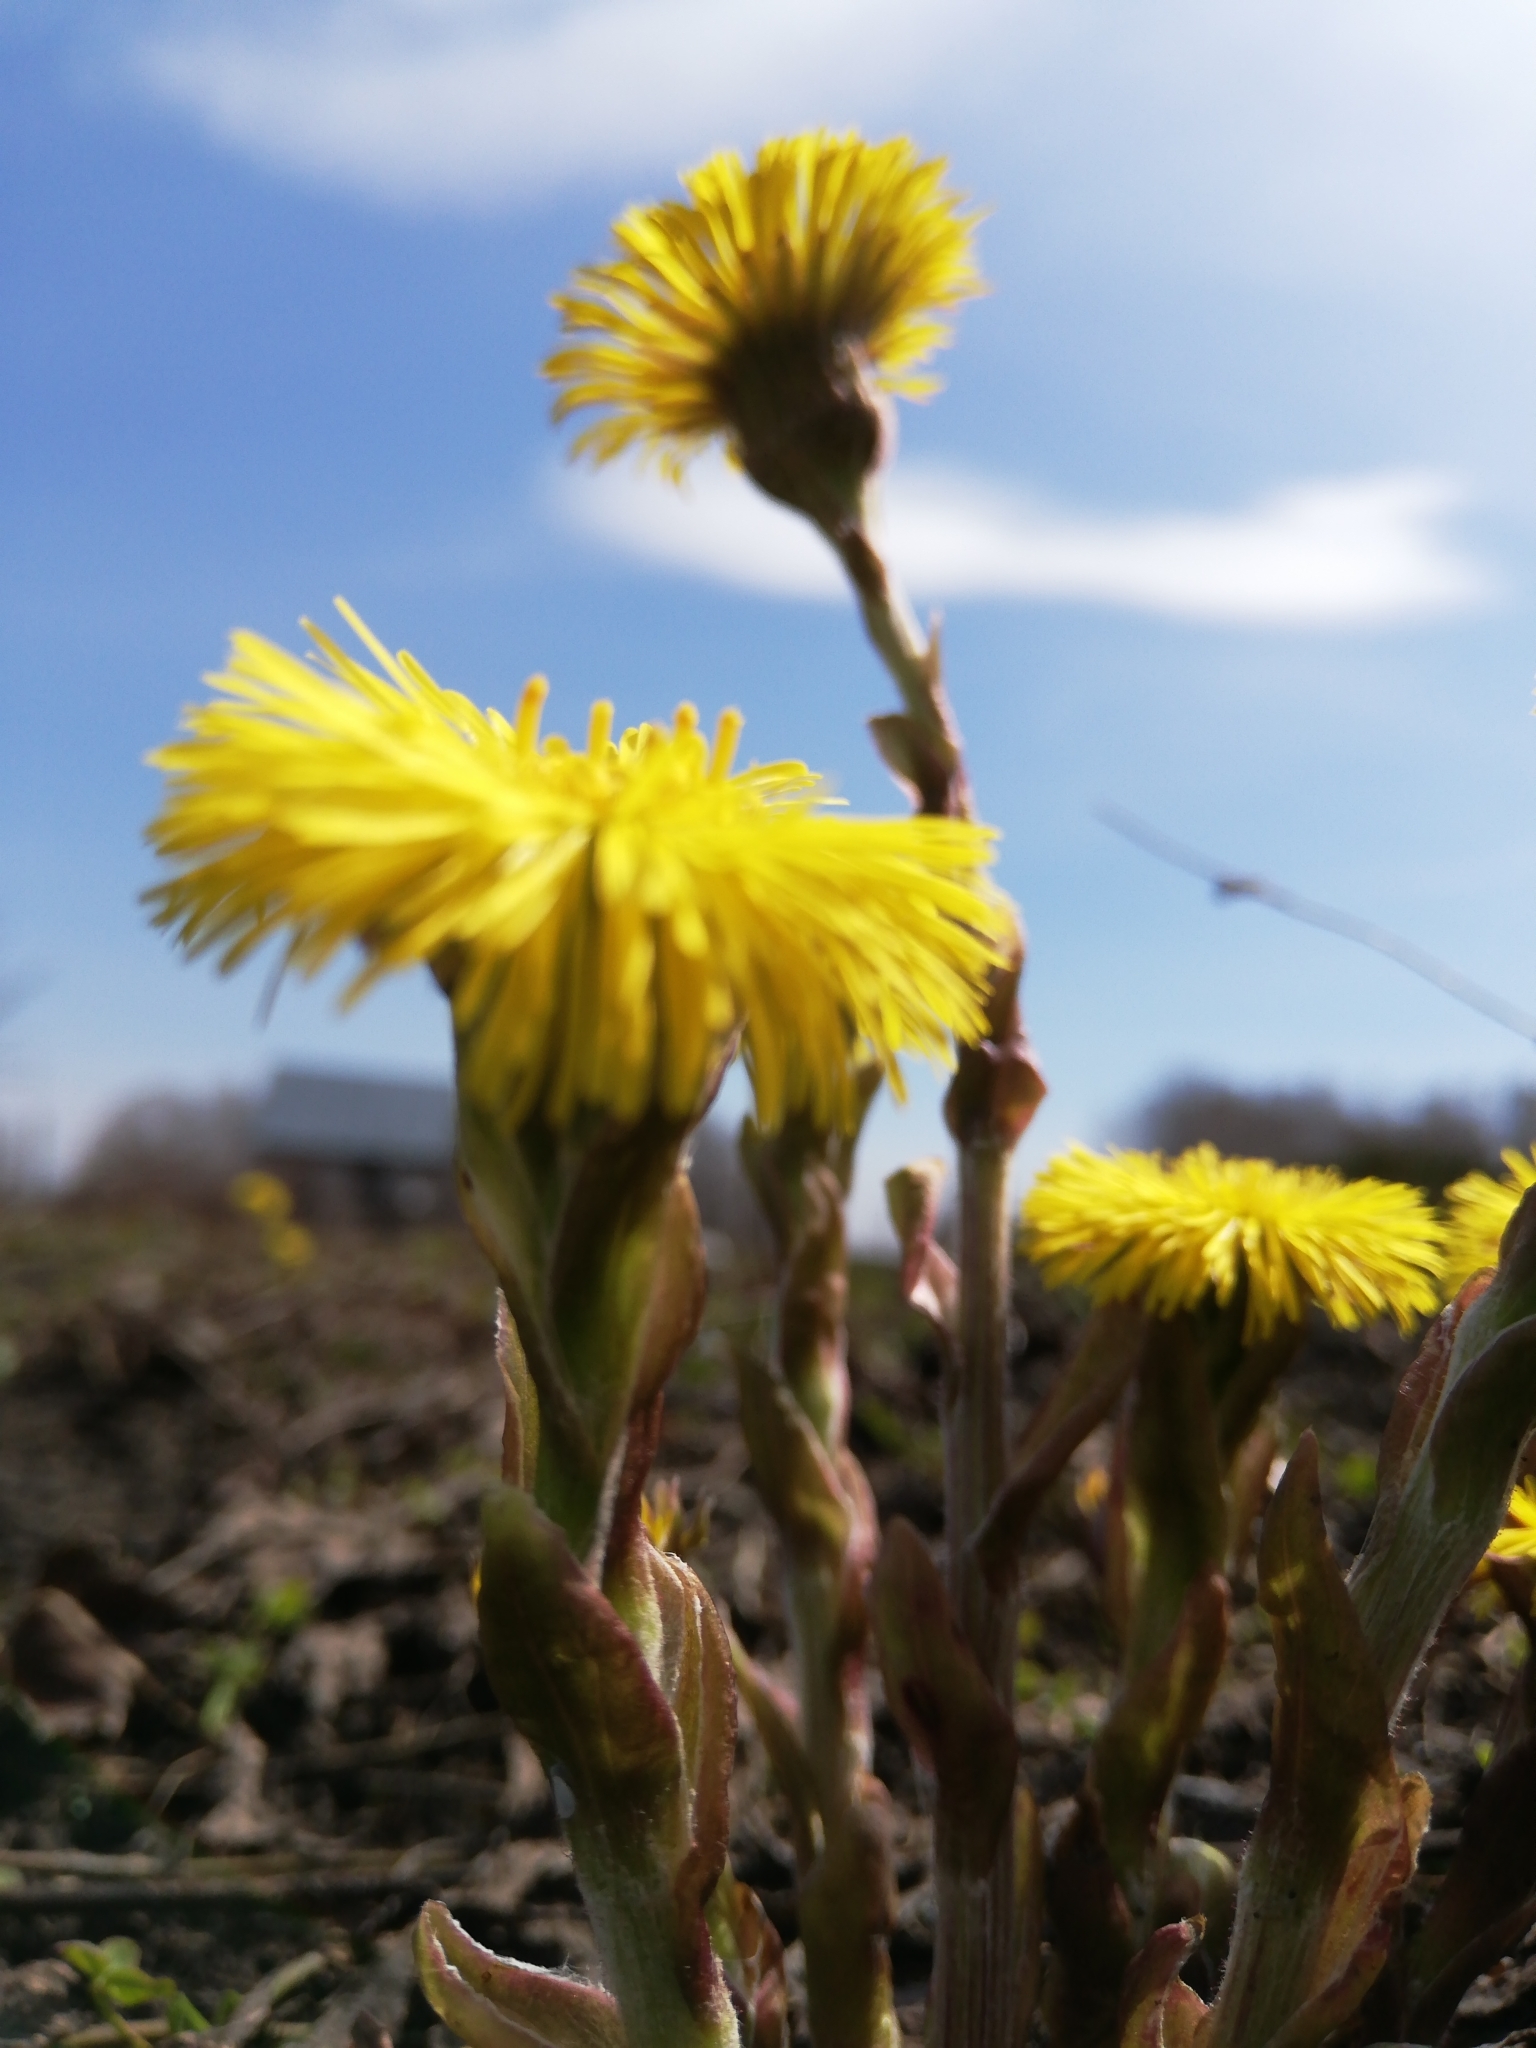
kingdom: Plantae
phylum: Tracheophyta
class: Magnoliopsida
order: Asterales
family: Asteraceae
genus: Tussilago
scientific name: Tussilago farfara
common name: Coltsfoot
